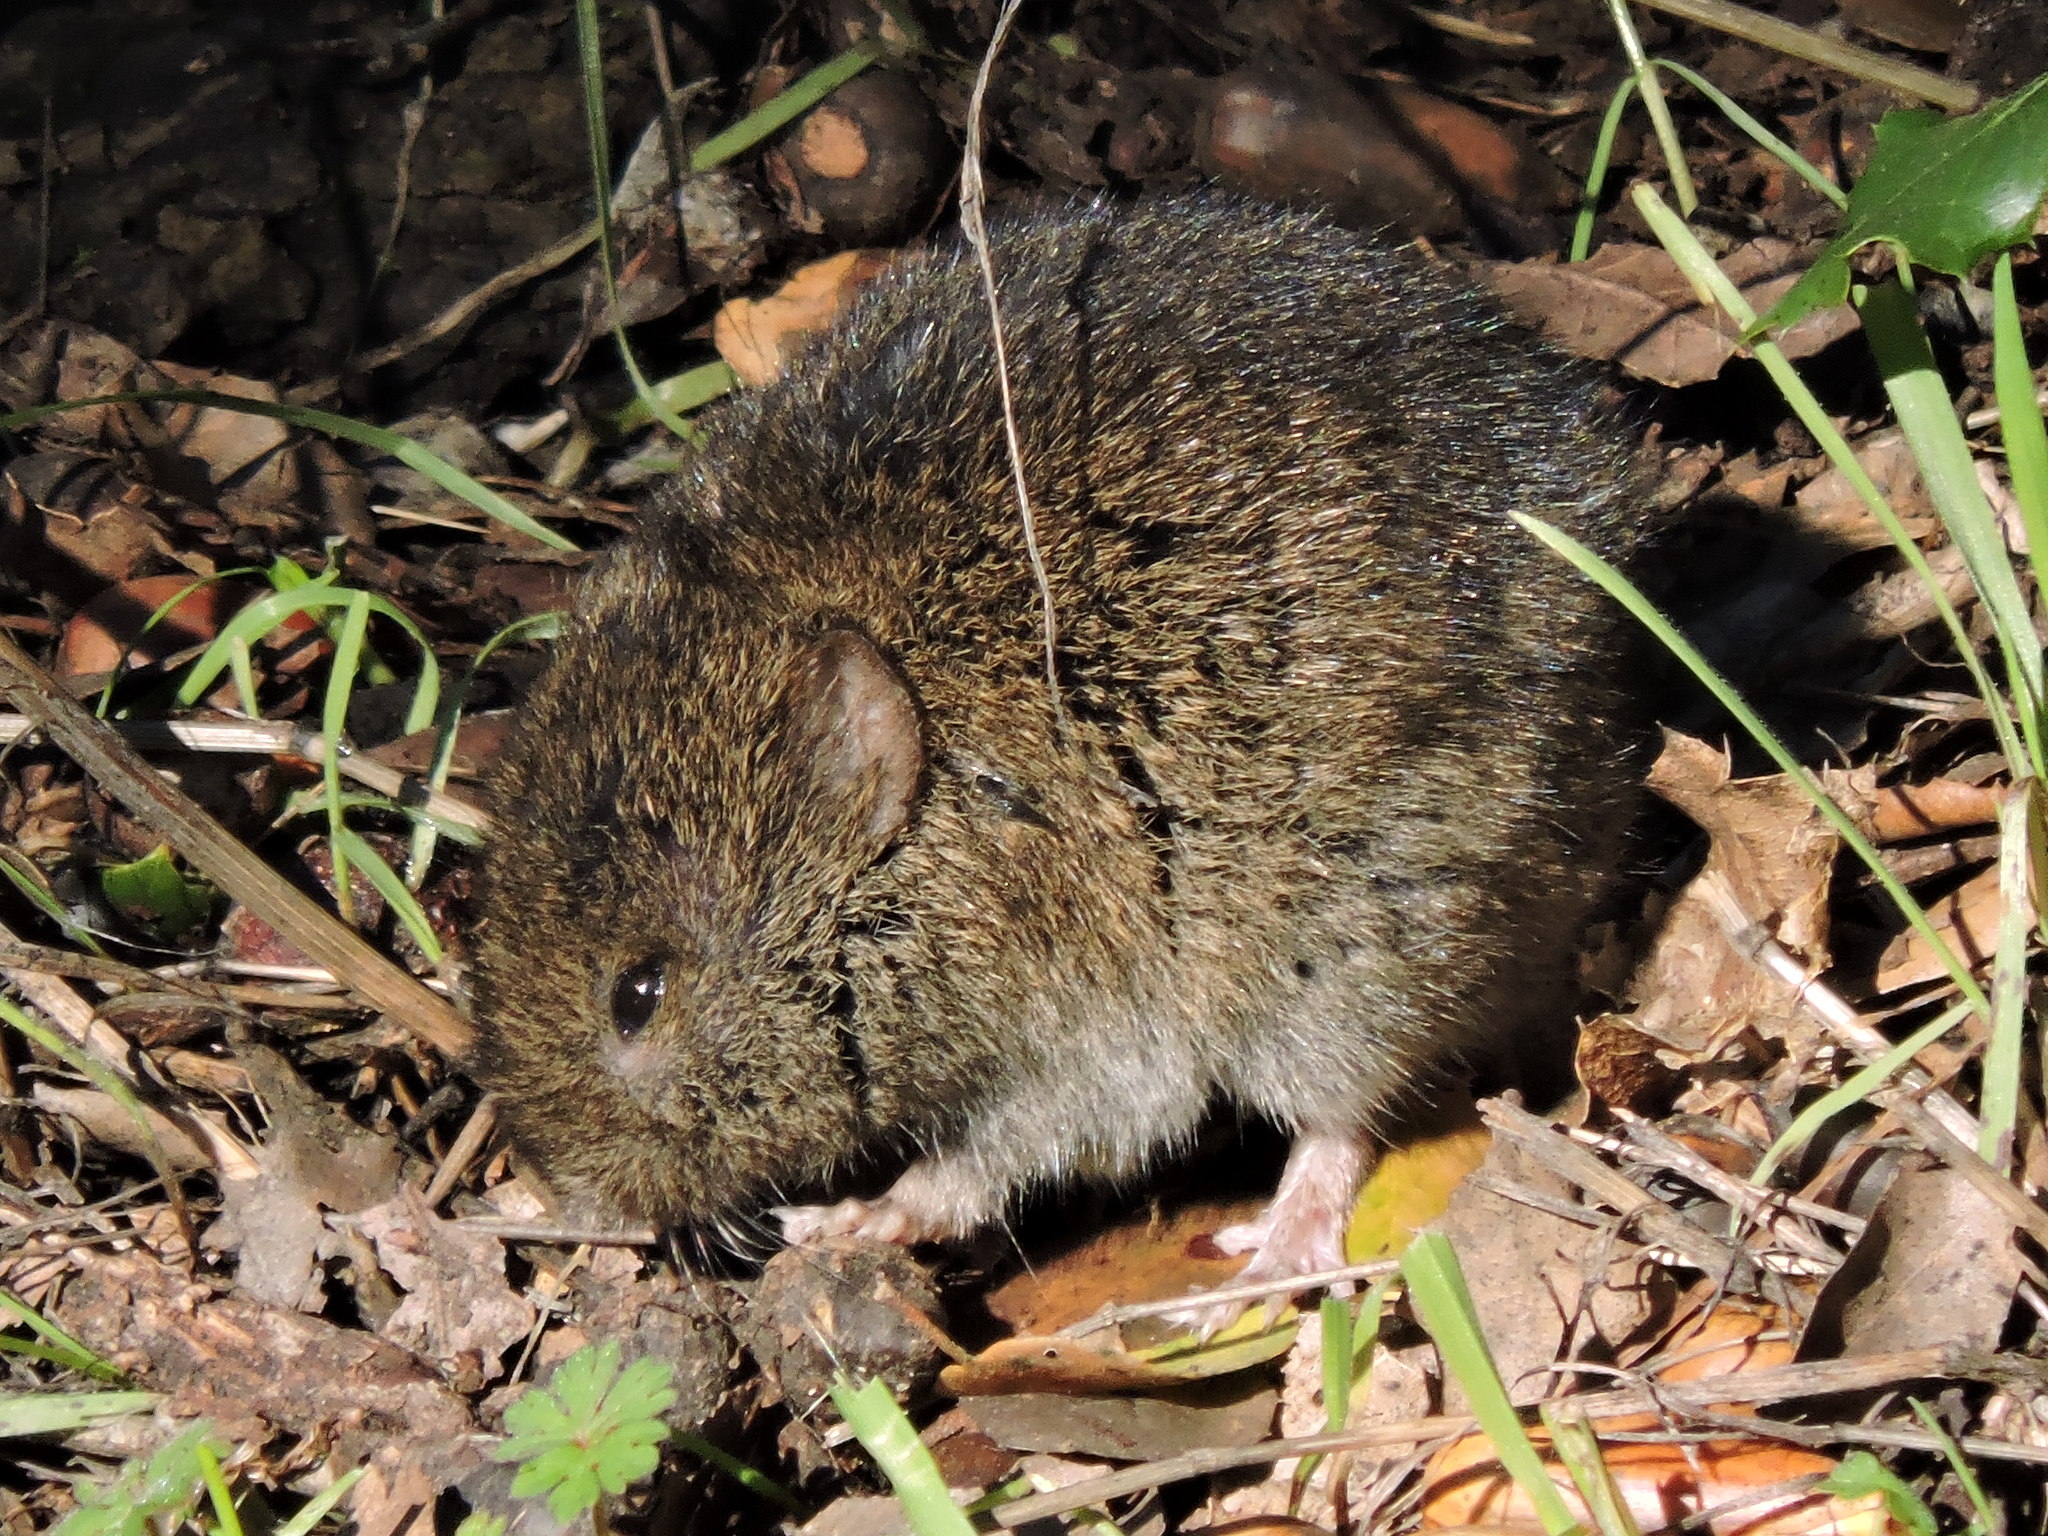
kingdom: Animalia
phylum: Chordata
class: Mammalia
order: Rodentia
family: Cricetidae
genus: Microtus
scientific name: Microtus californicus
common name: California vole
